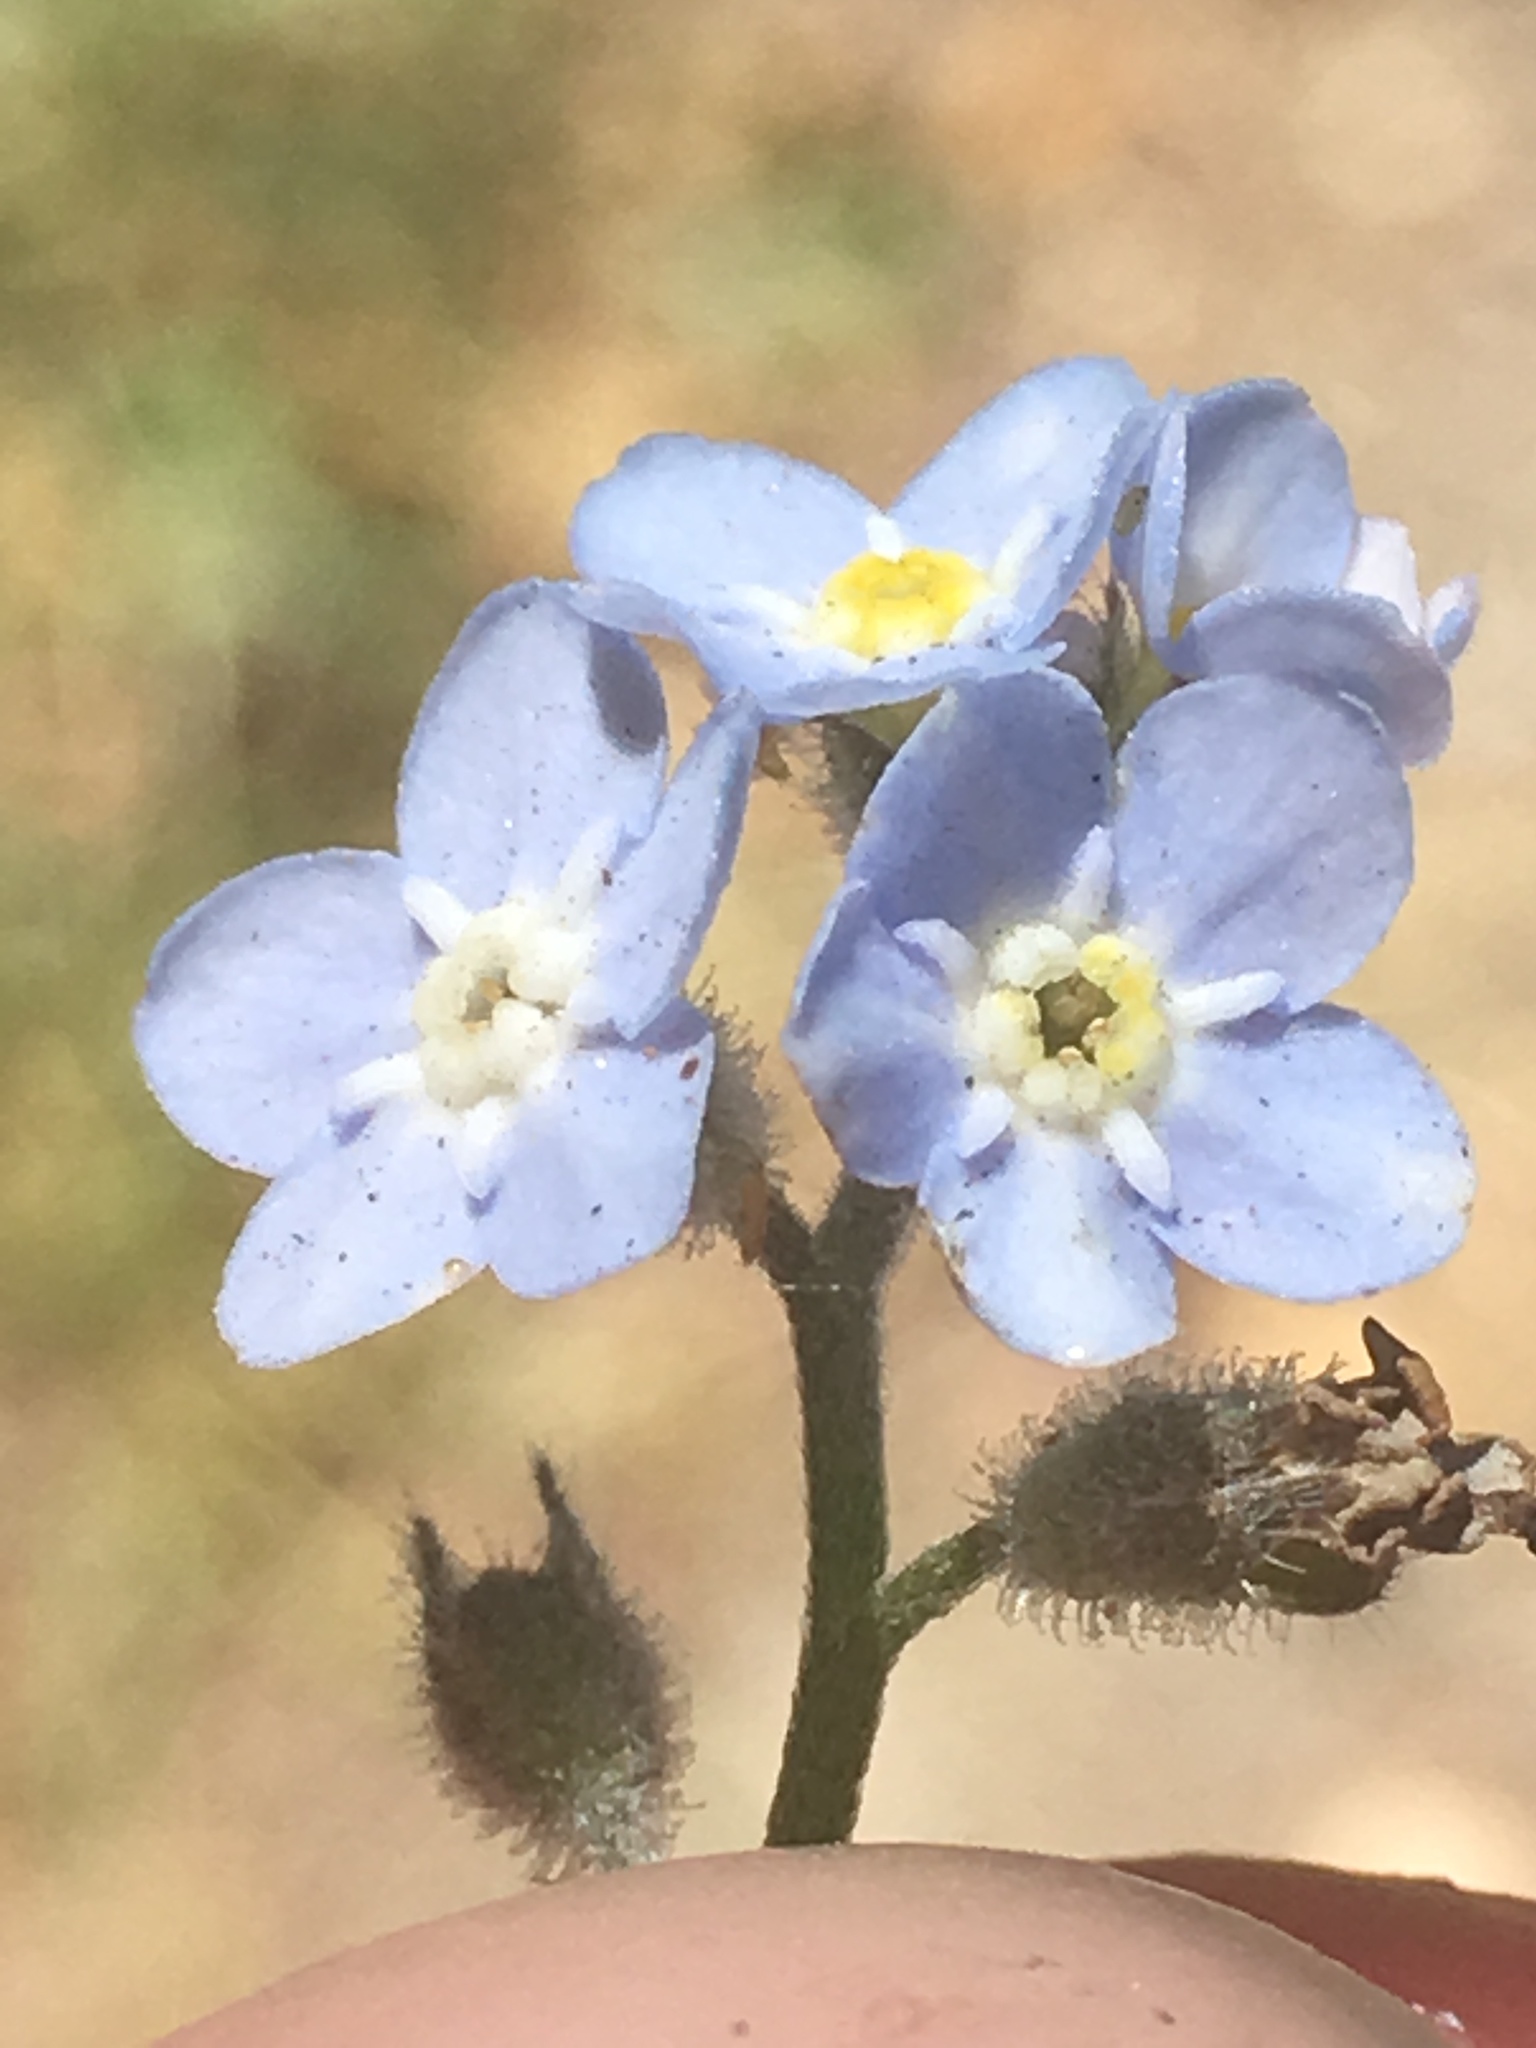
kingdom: Plantae
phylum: Tracheophyta
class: Magnoliopsida
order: Boraginales
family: Boraginaceae
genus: Myosotis
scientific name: Myosotis latifolia
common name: Broadleaf forget-me-not
